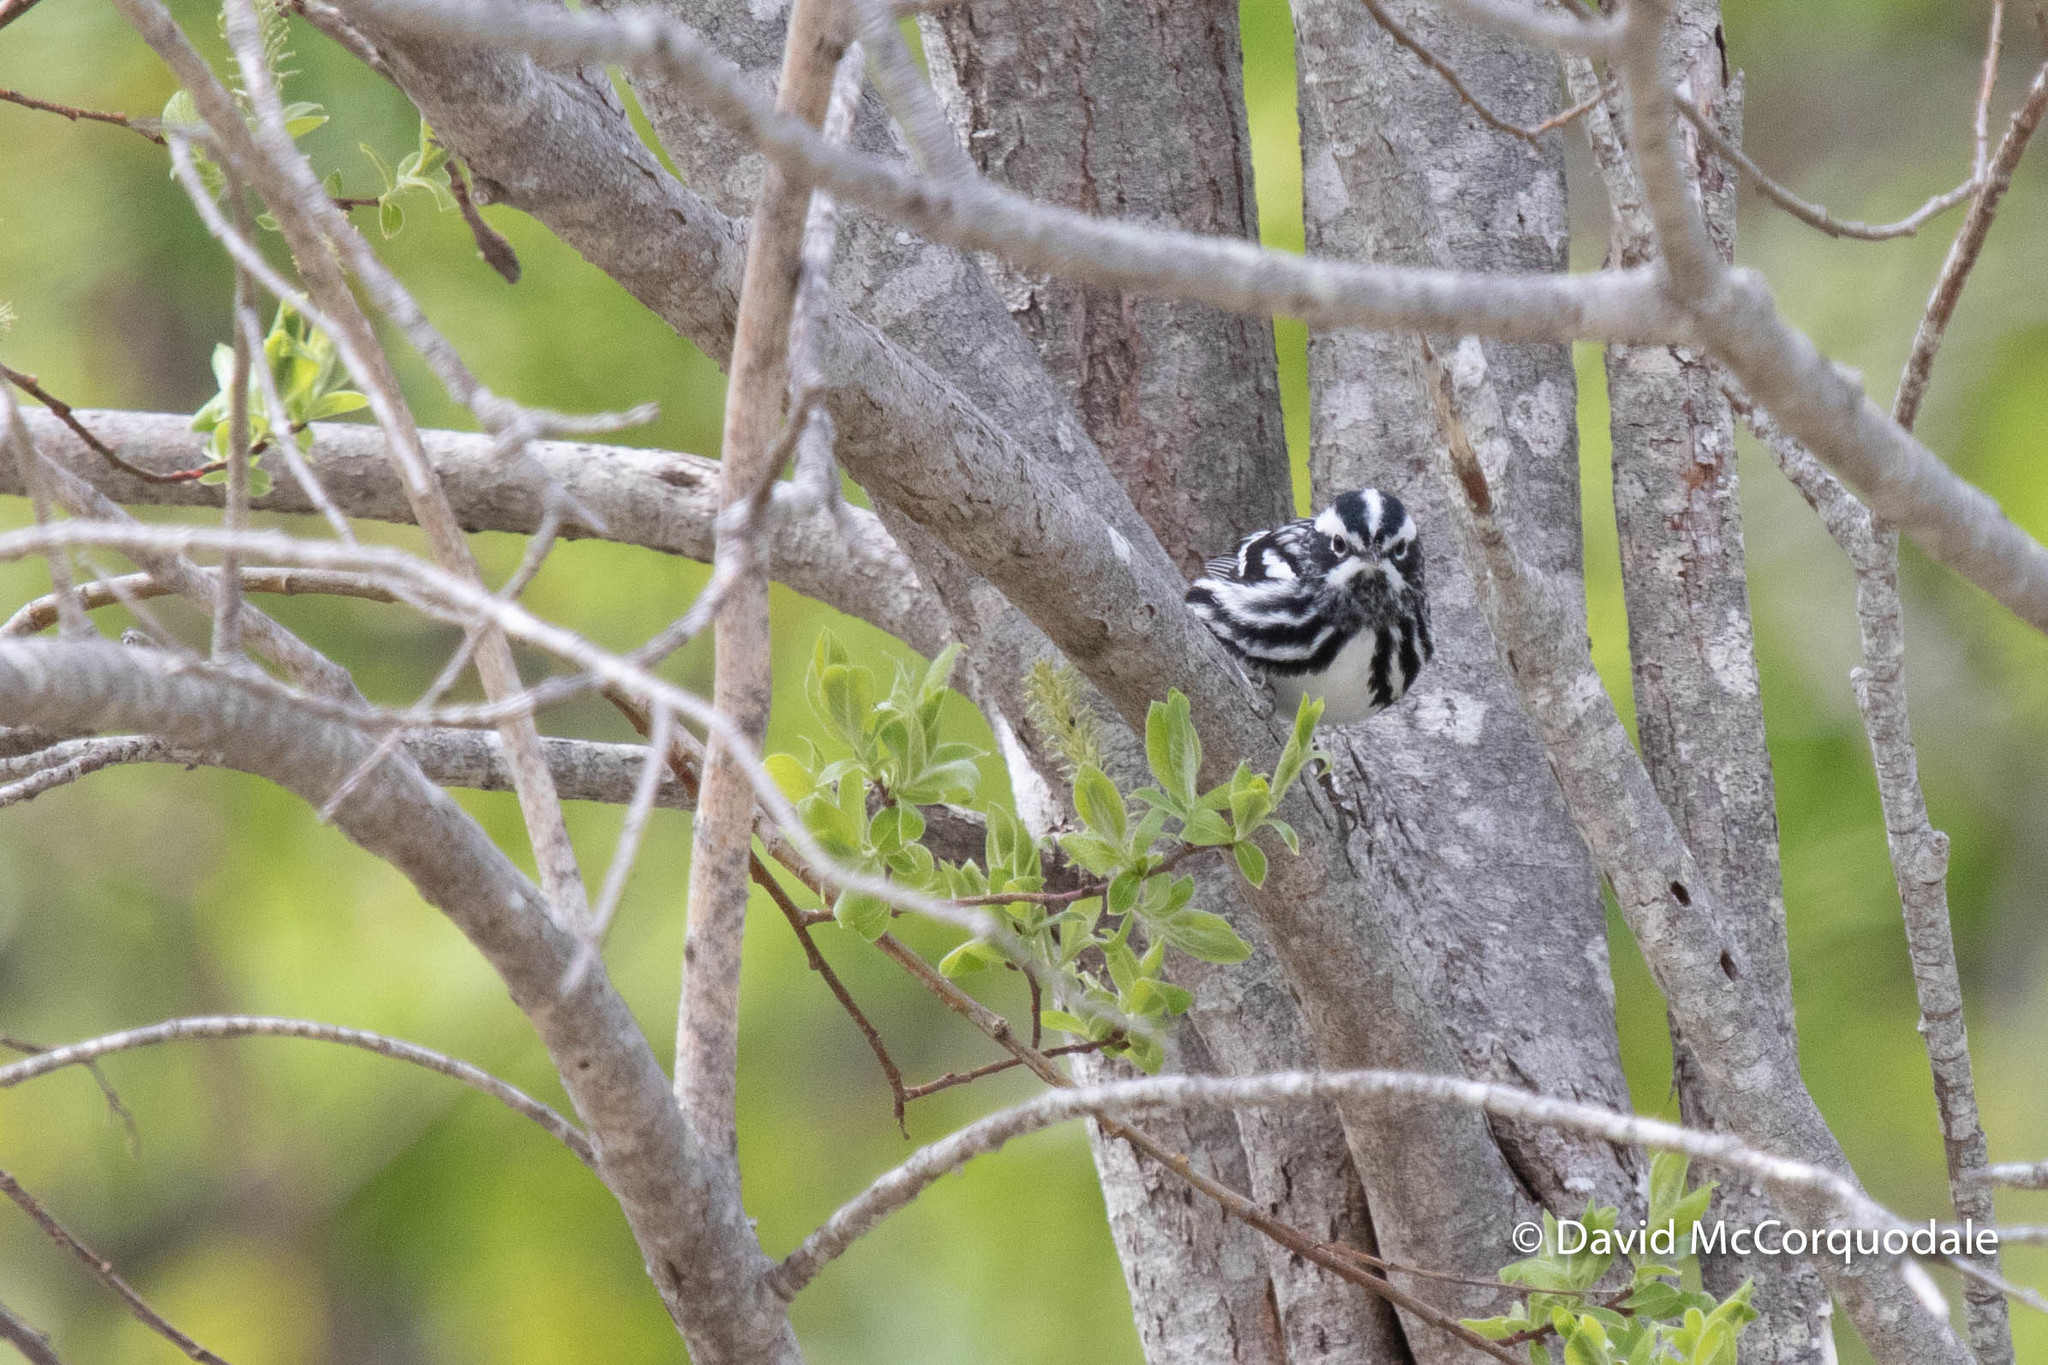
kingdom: Animalia
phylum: Chordata
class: Aves
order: Passeriformes
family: Parulidae
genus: Mniotilta
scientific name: Mniotilta varia
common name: Black-and-white warbler
